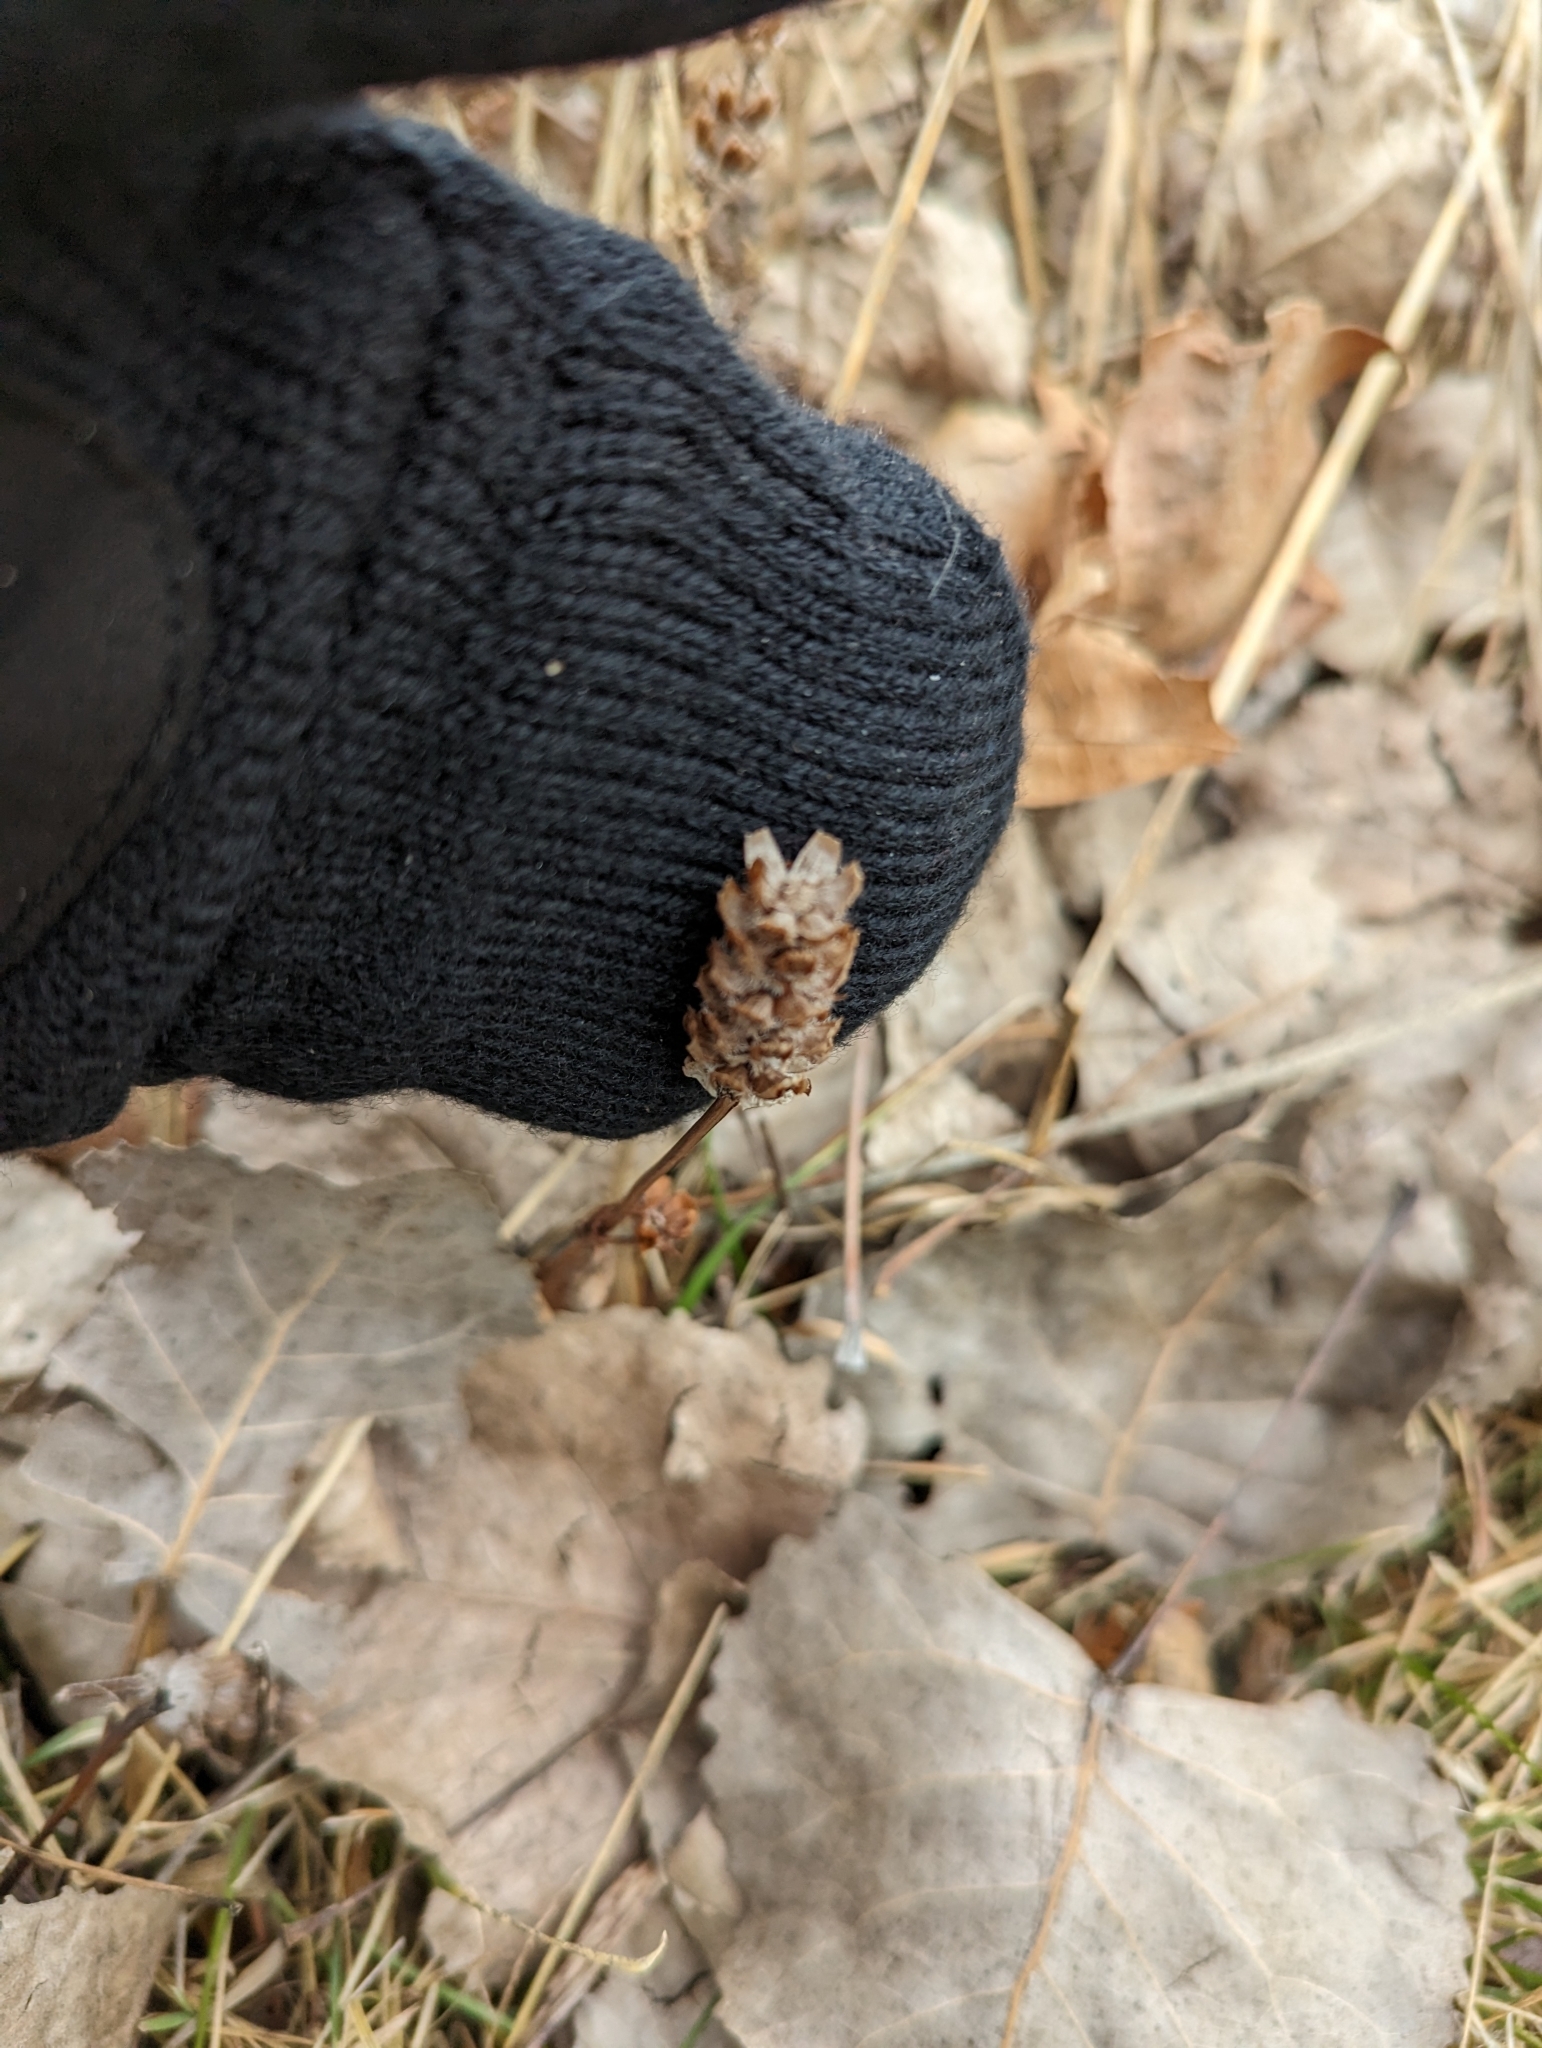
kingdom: Plantae
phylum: Tracheophyta
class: Magnoliopsida
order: Lamiales
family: Lamiaceae
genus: Prunella
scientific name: Prunella vulgaris
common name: Heal-all
